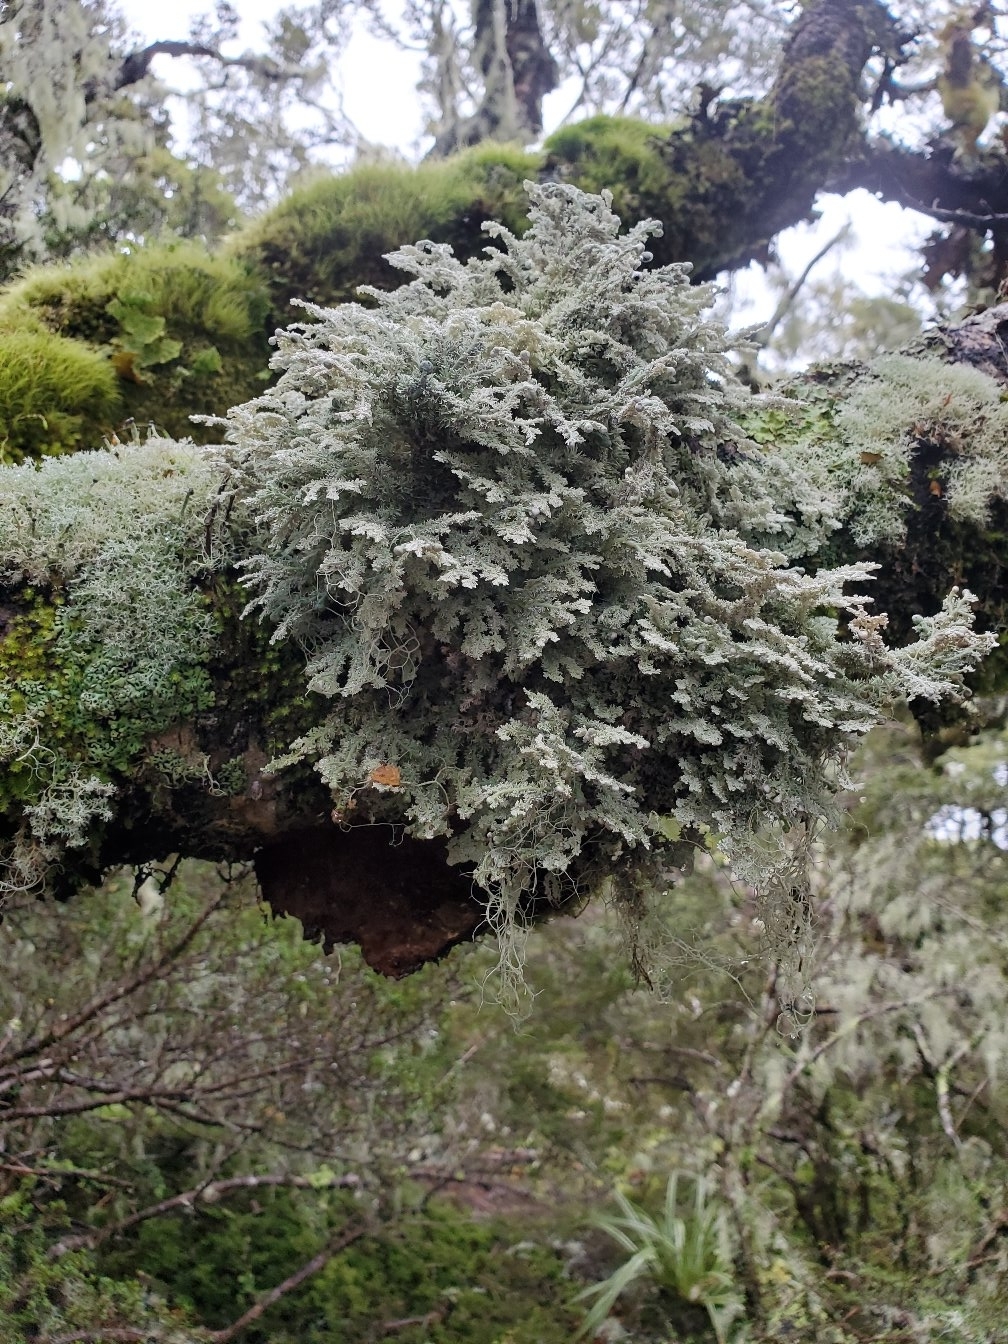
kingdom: Fungi
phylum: Ascomycota
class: Lecanoromycetes
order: Lecanorales
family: Sphaerophoraceae
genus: Sphaerophorus
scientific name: Sphaerophorus stereocauloides
